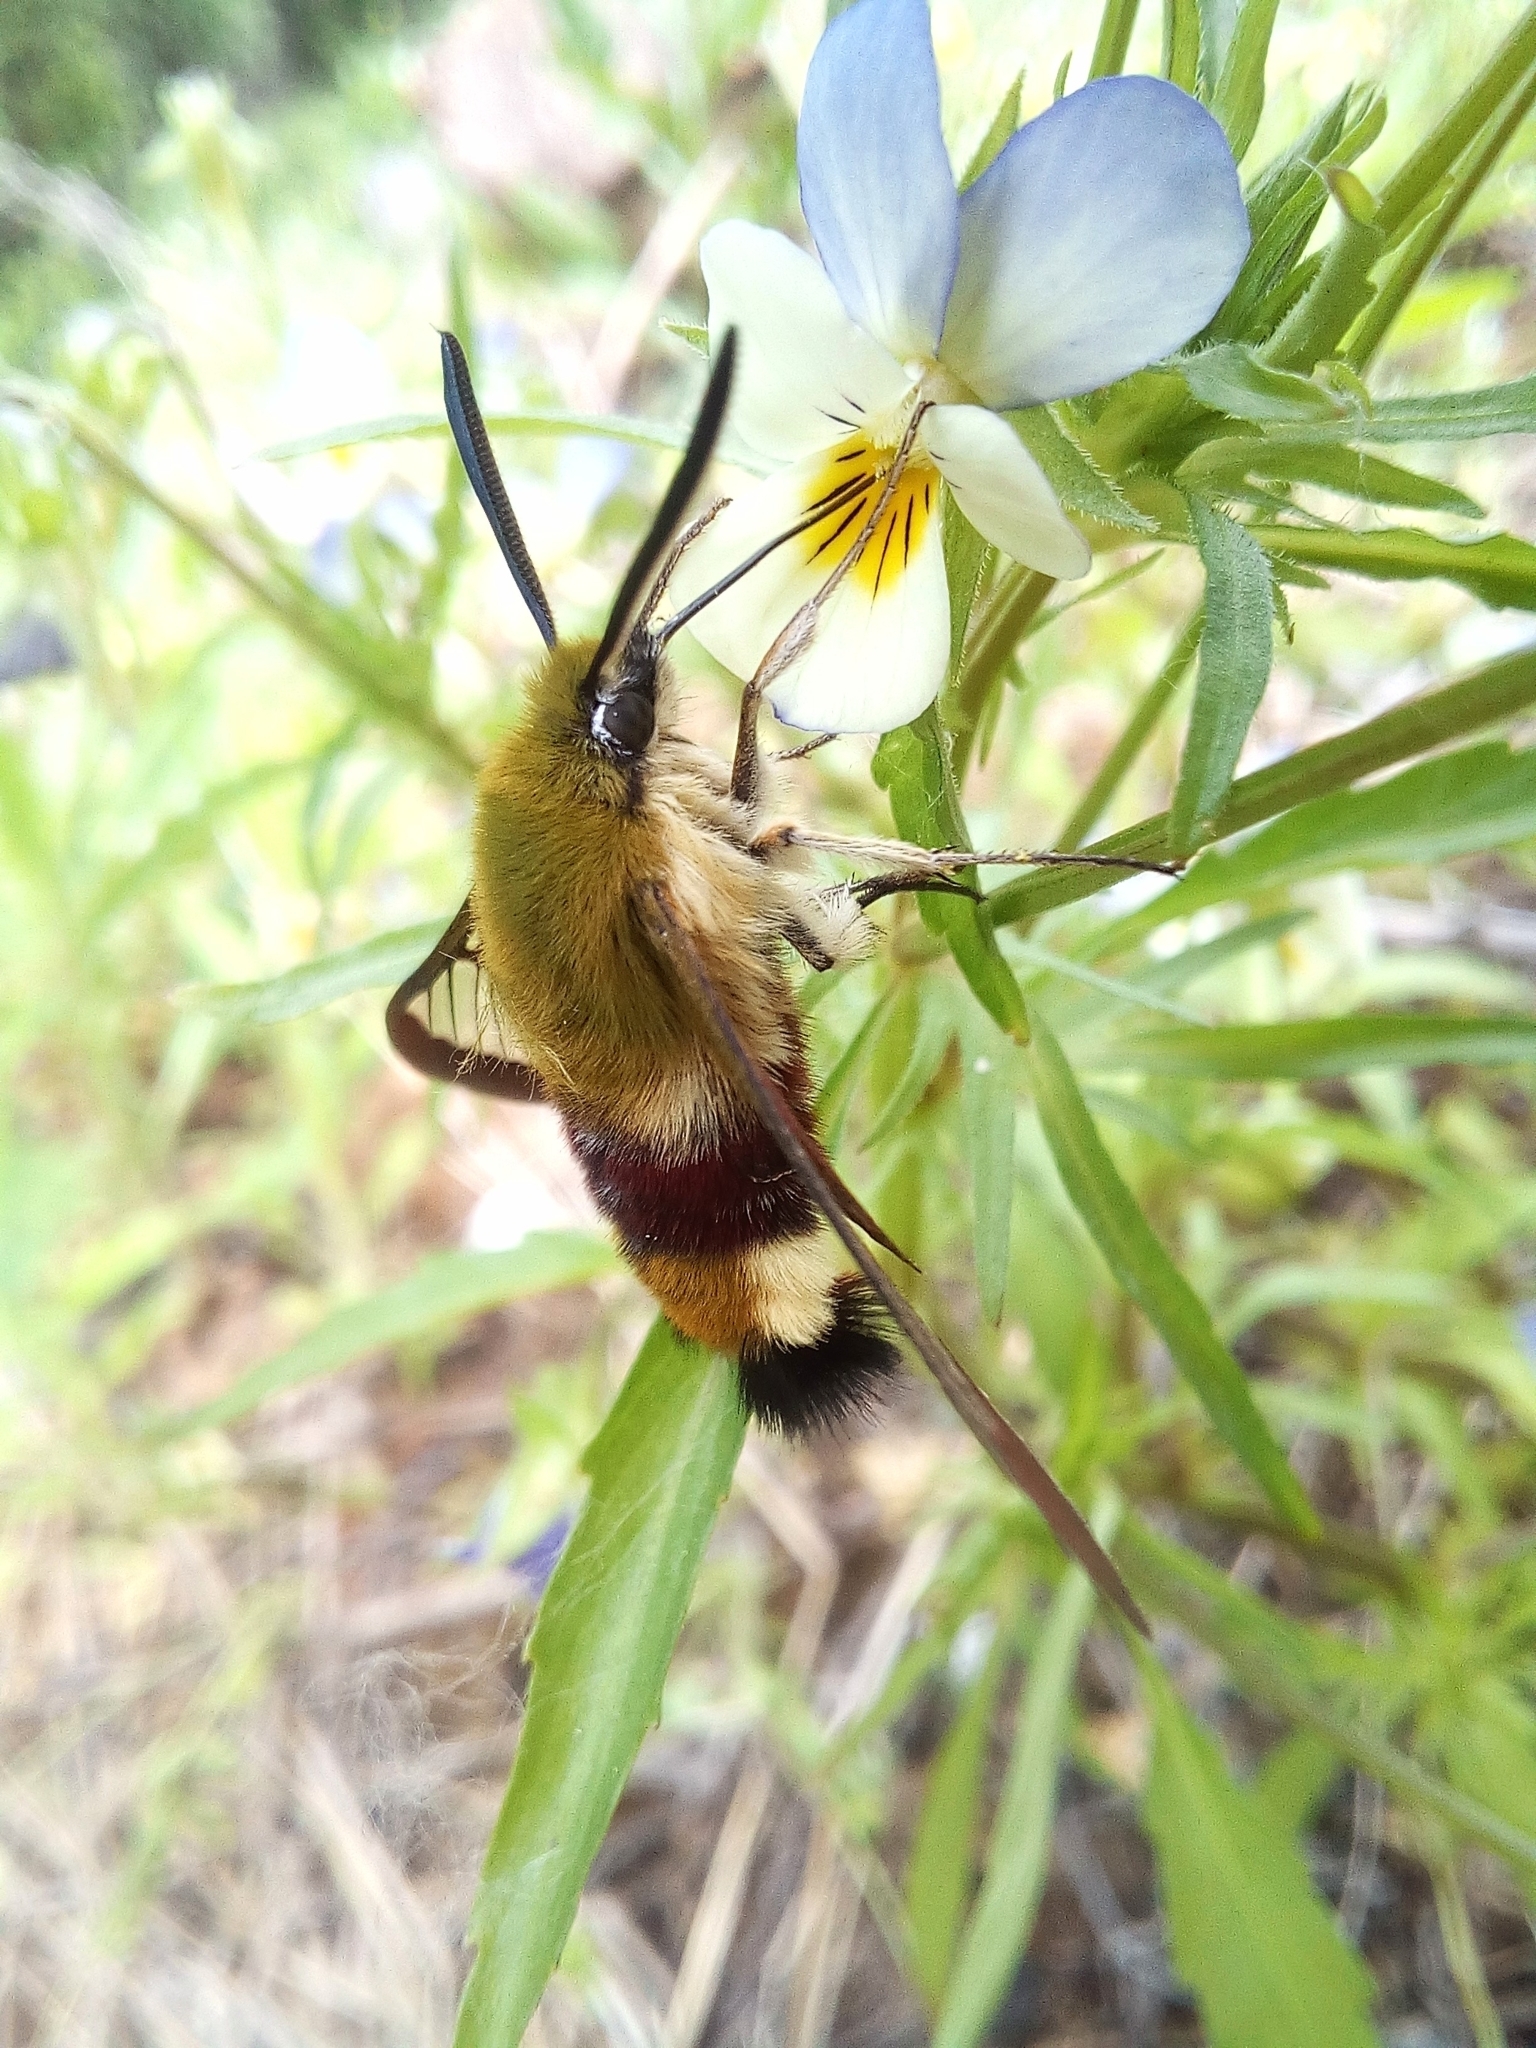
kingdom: Animalia
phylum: Arthropoda
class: Insecta
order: Lepidoptera
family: Sphingidae
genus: Hemaris
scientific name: Hemaris fuciformis
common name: Broad-bordered bee hawk-moth
